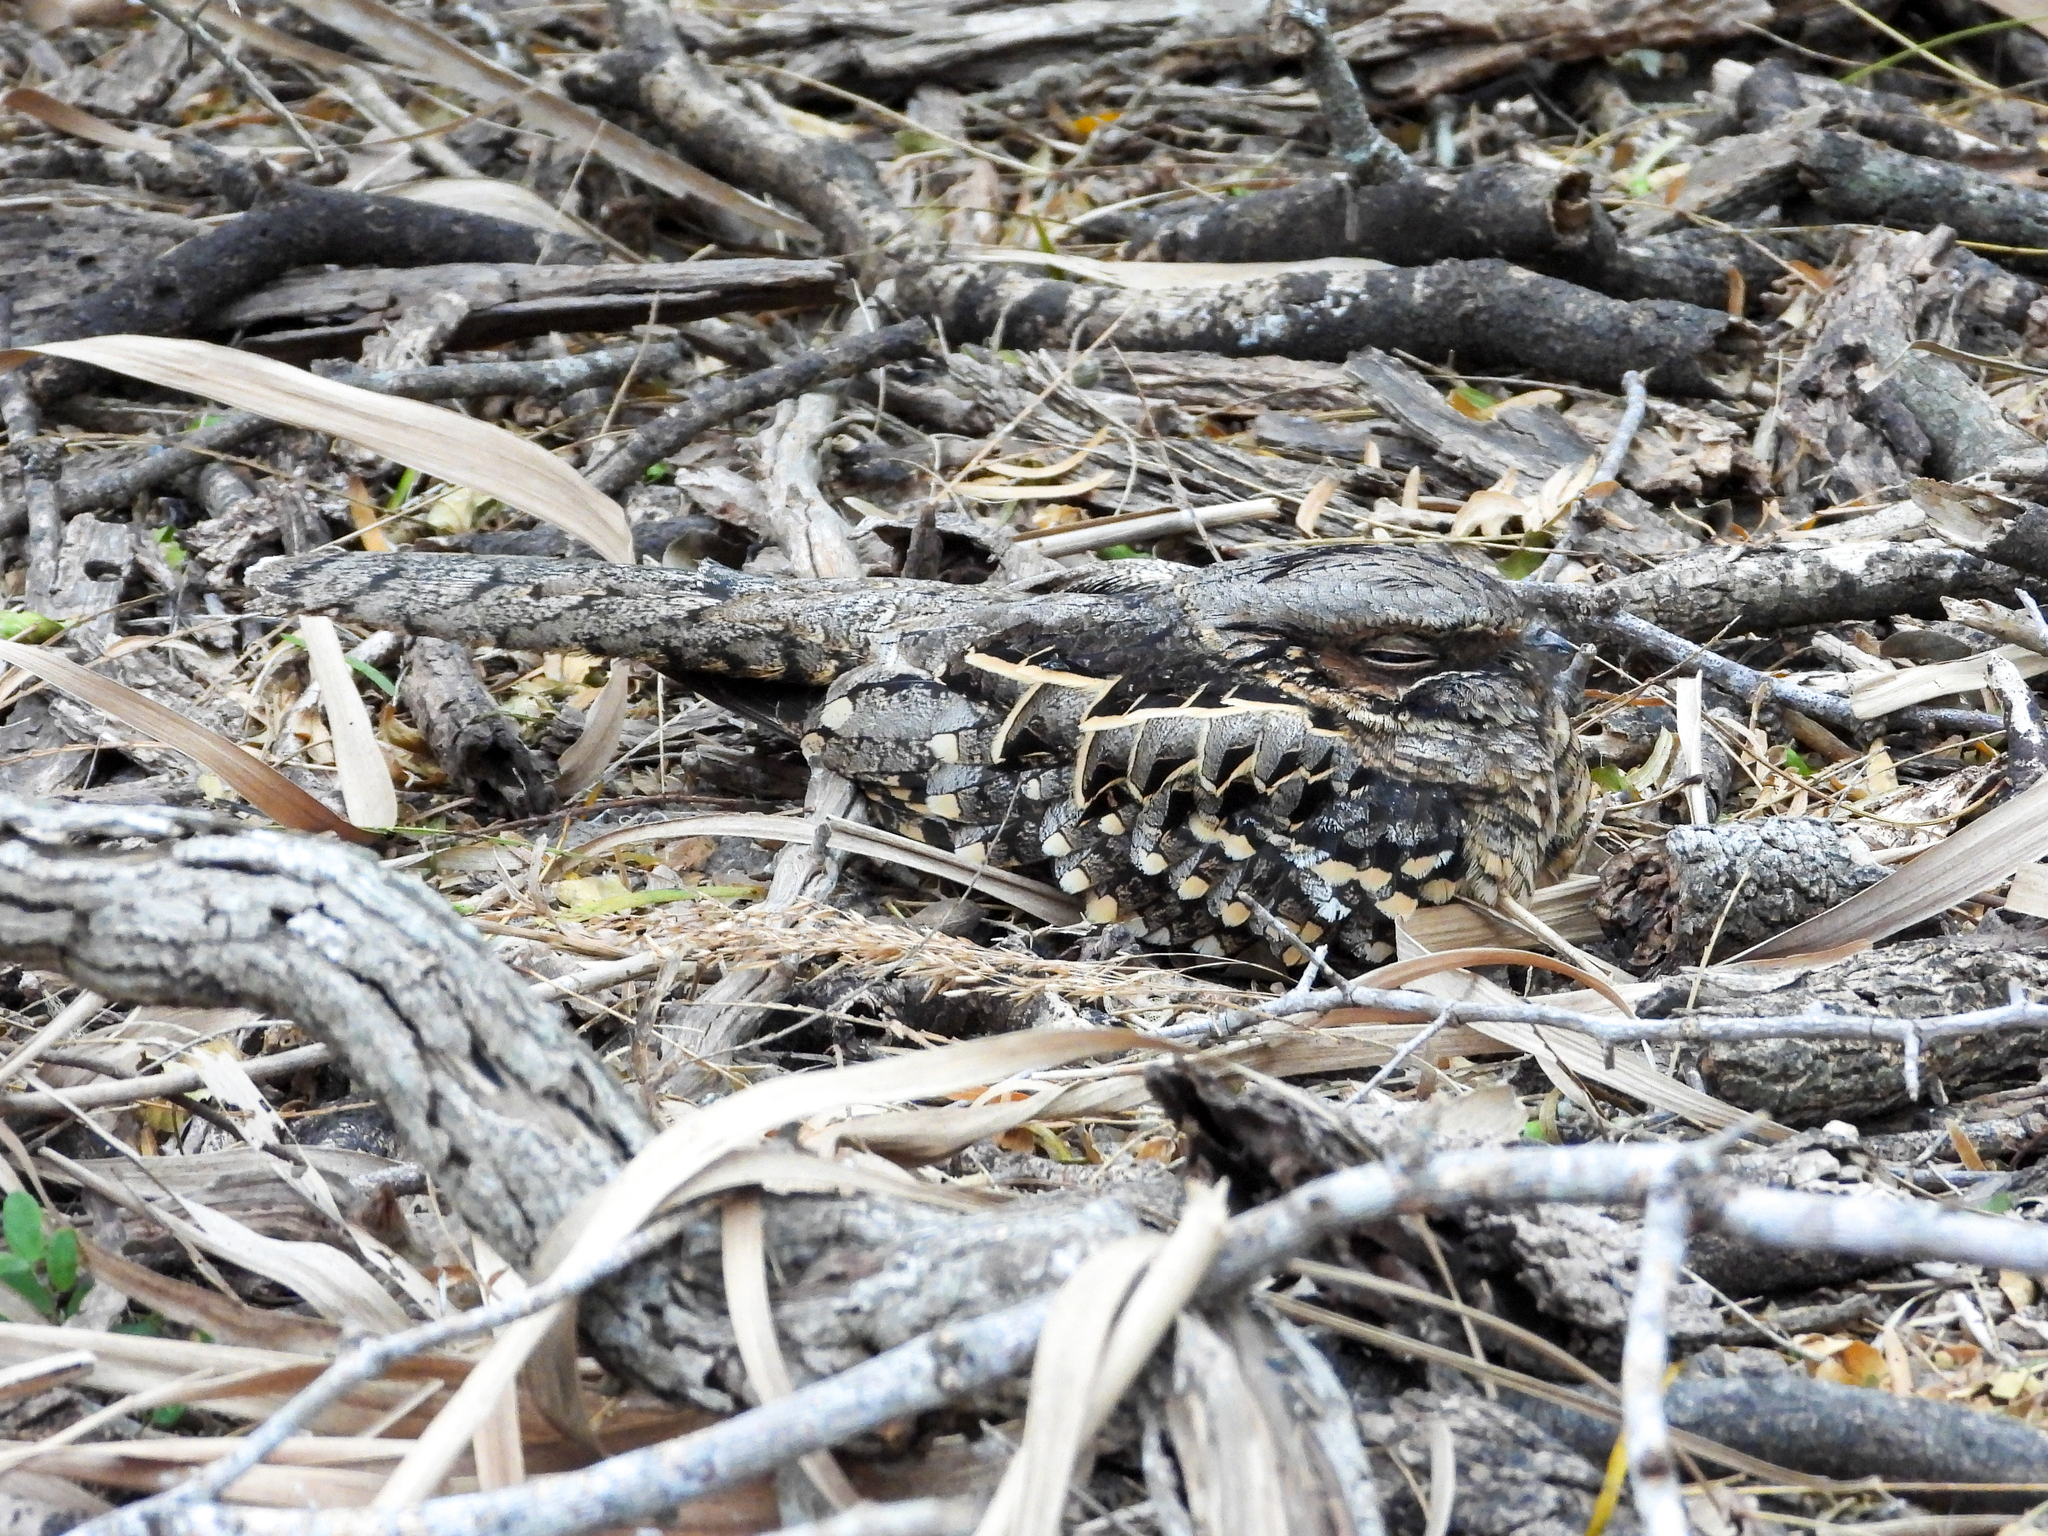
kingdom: Animalia
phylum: Chordata
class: Aves
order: Caprimulgiformes
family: Caprimulgidae
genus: Nyctidromus
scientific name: Nyctidromus albicollis
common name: Pauraque
